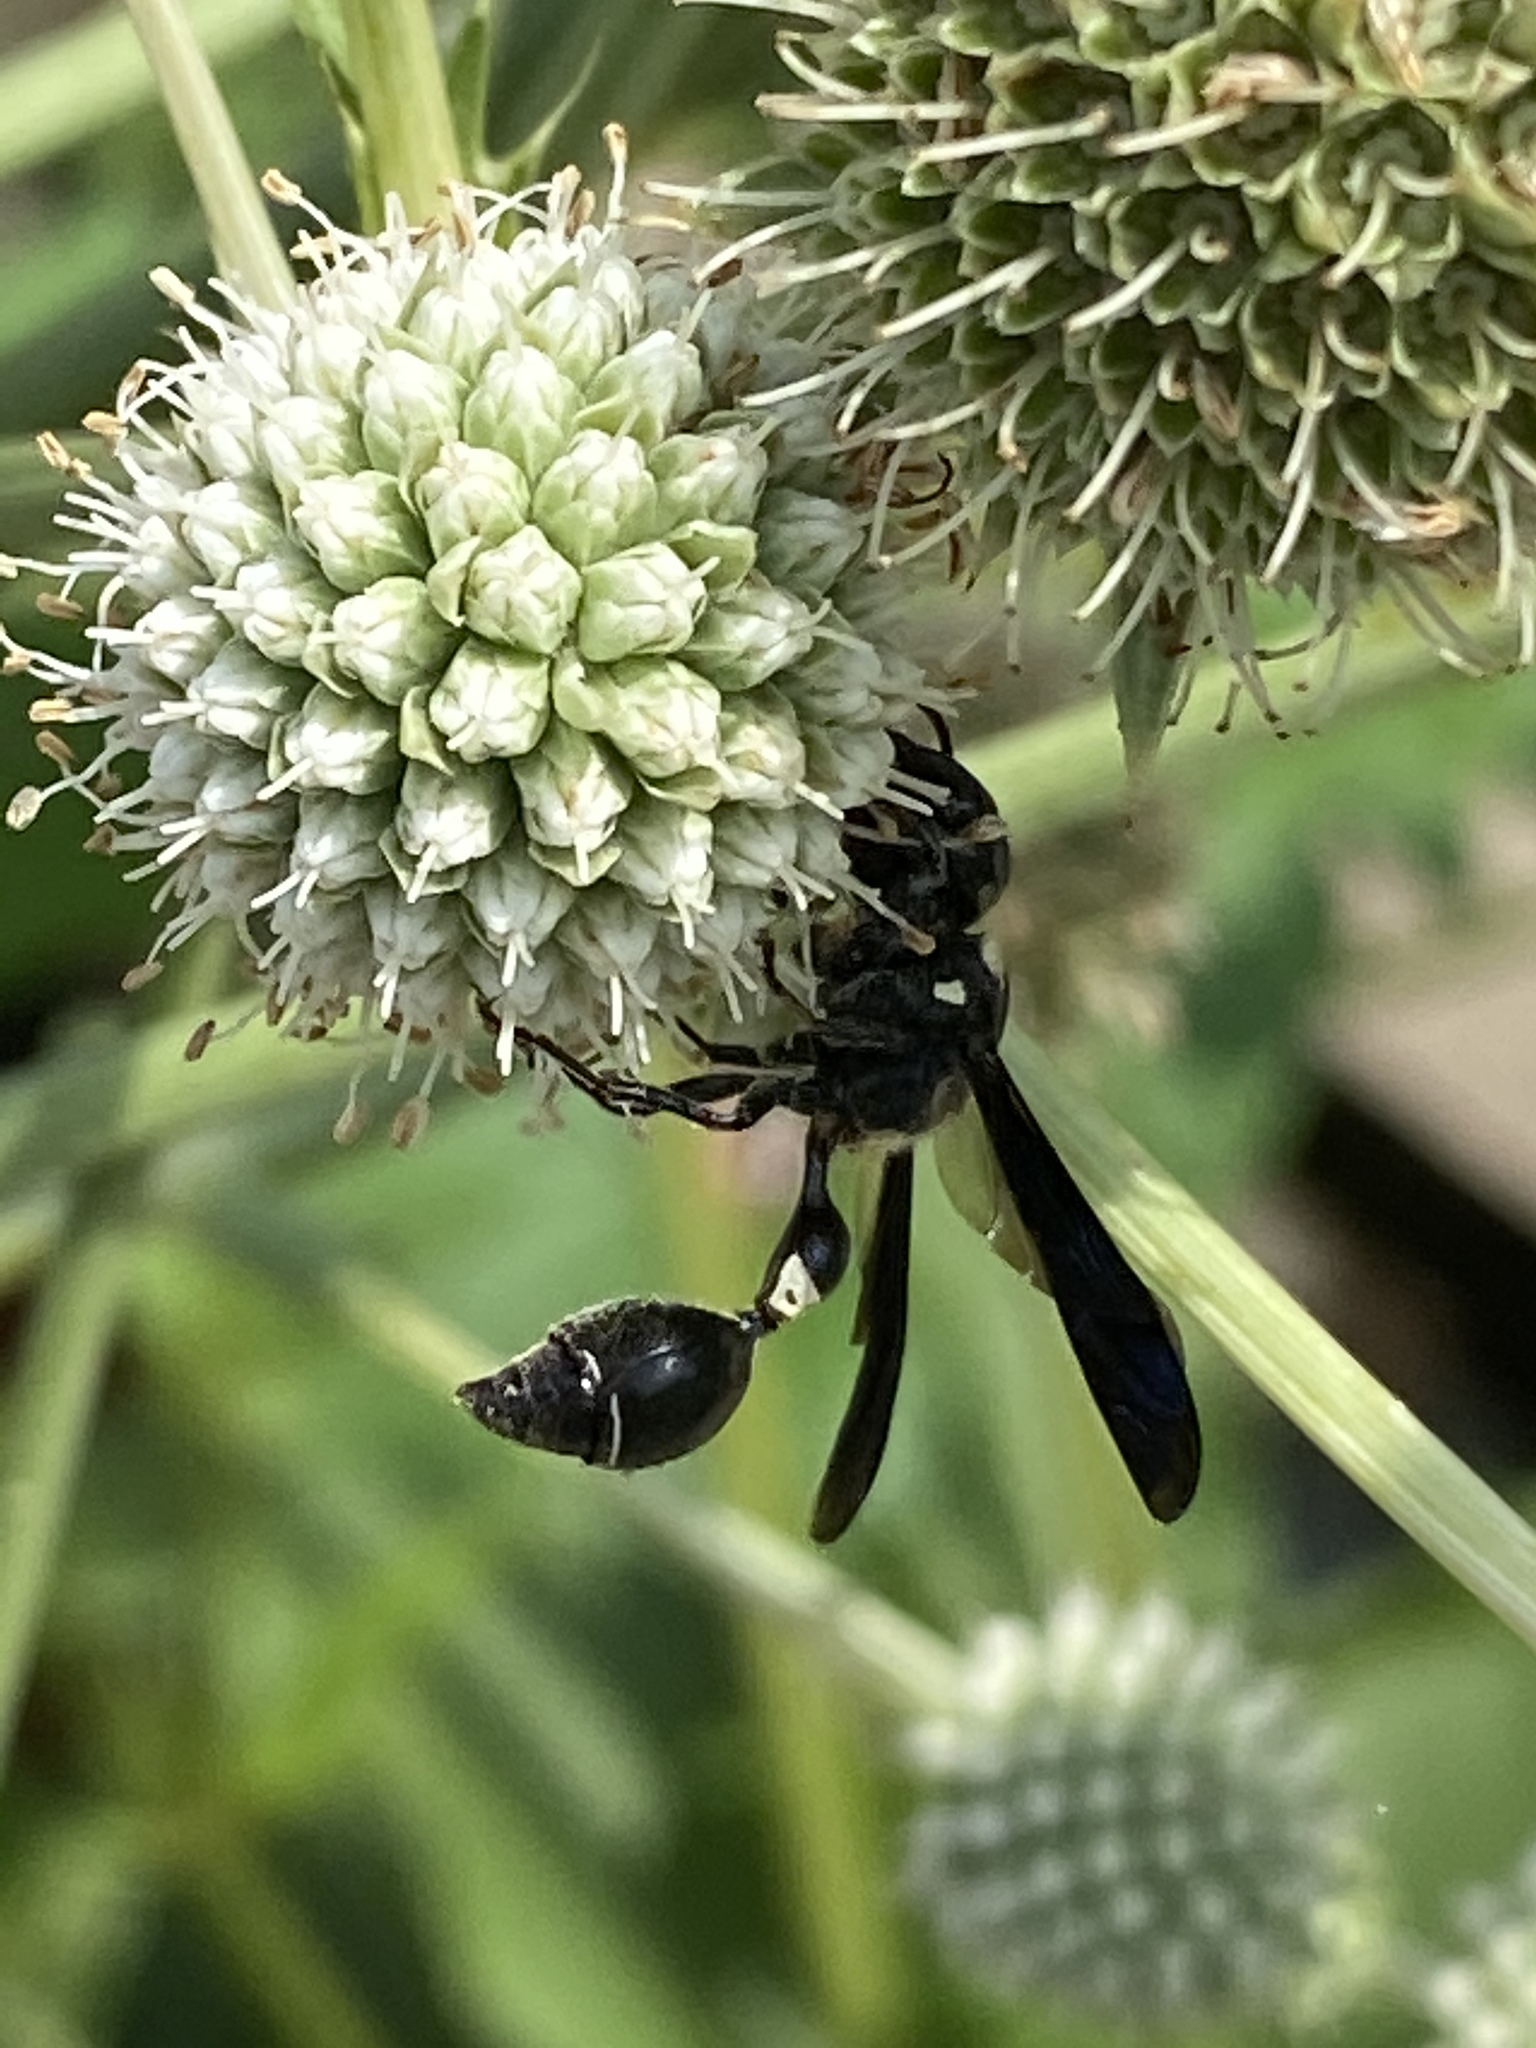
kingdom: Animalia
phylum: Arthropoda
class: Insecta
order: Hymenoptera
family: Eumenidae
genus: Zethus
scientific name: Zethus spinipes
